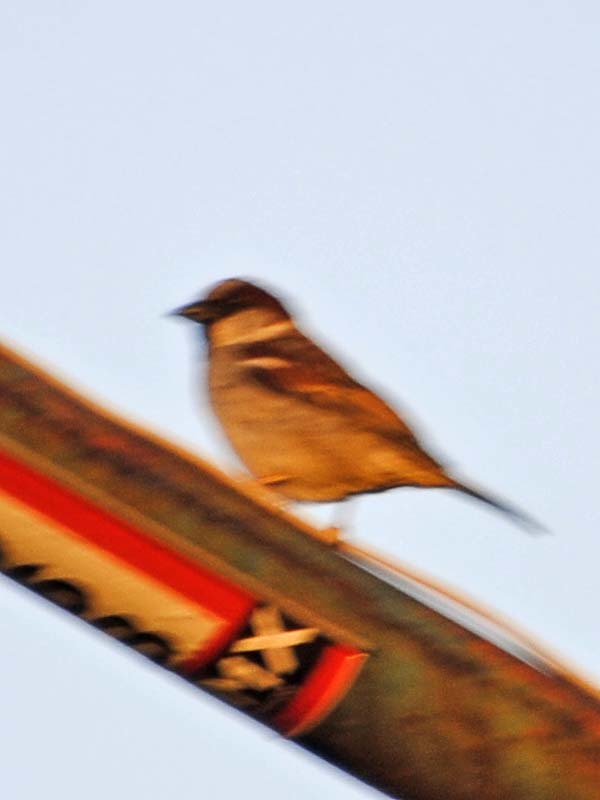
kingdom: Animalia
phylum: Chordata
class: Aves
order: Passeriformes
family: Passeridae
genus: Passer
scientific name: Passer domesticus
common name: House sparrow
